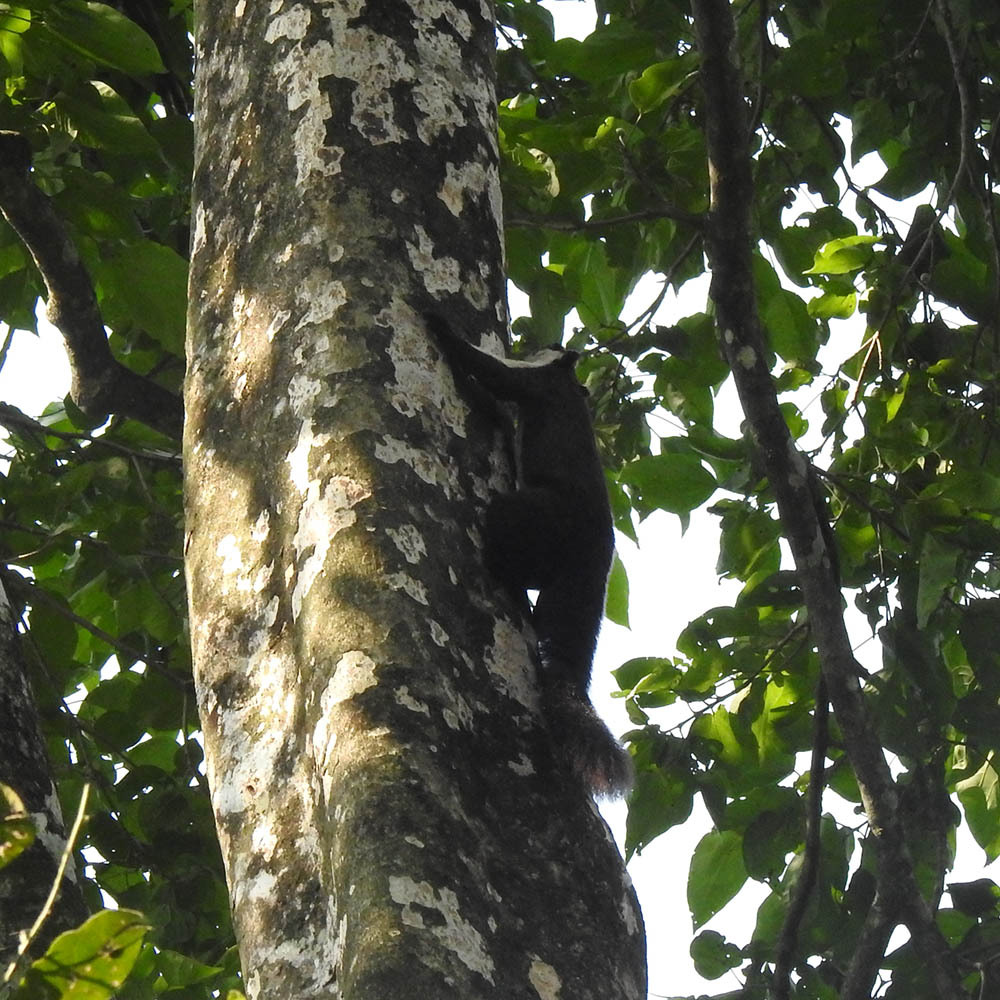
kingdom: Animalia
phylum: Chordata
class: Mammalia
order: Rodentia
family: Sciuridae
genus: Ratufa
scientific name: Ratufa bicolor
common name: Black giant squirrel
